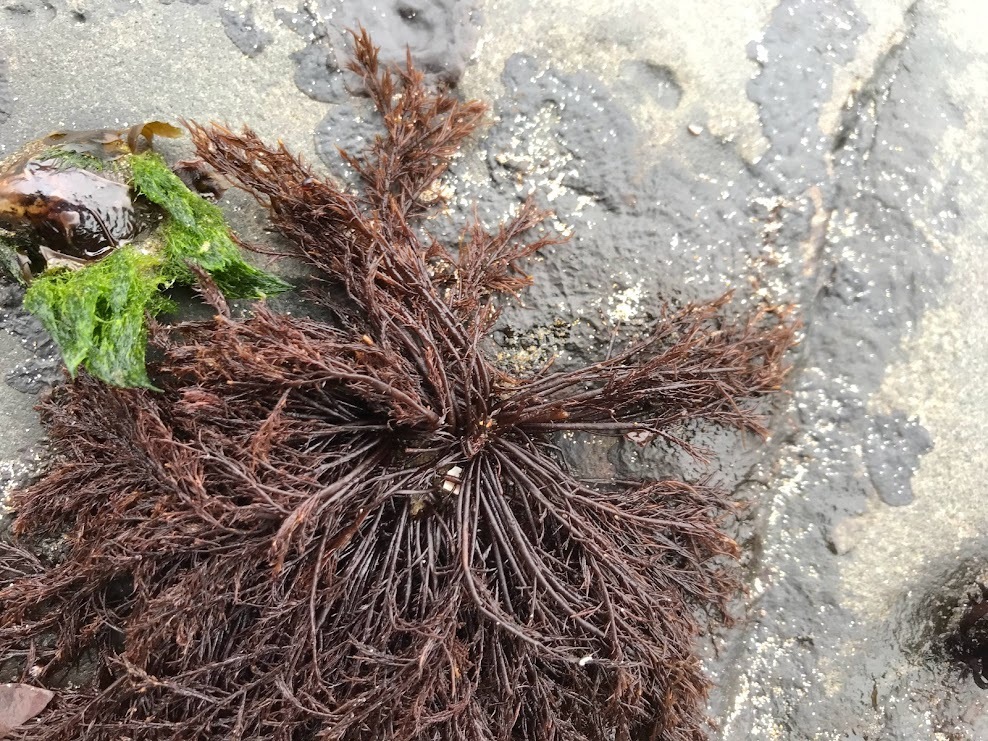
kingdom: Plantae
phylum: Rhodophyta
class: Florideophyceae
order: Gigartinales
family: Dumontiaceae
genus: Cryptosiphonia
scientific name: Cryptosiphonia woodii
